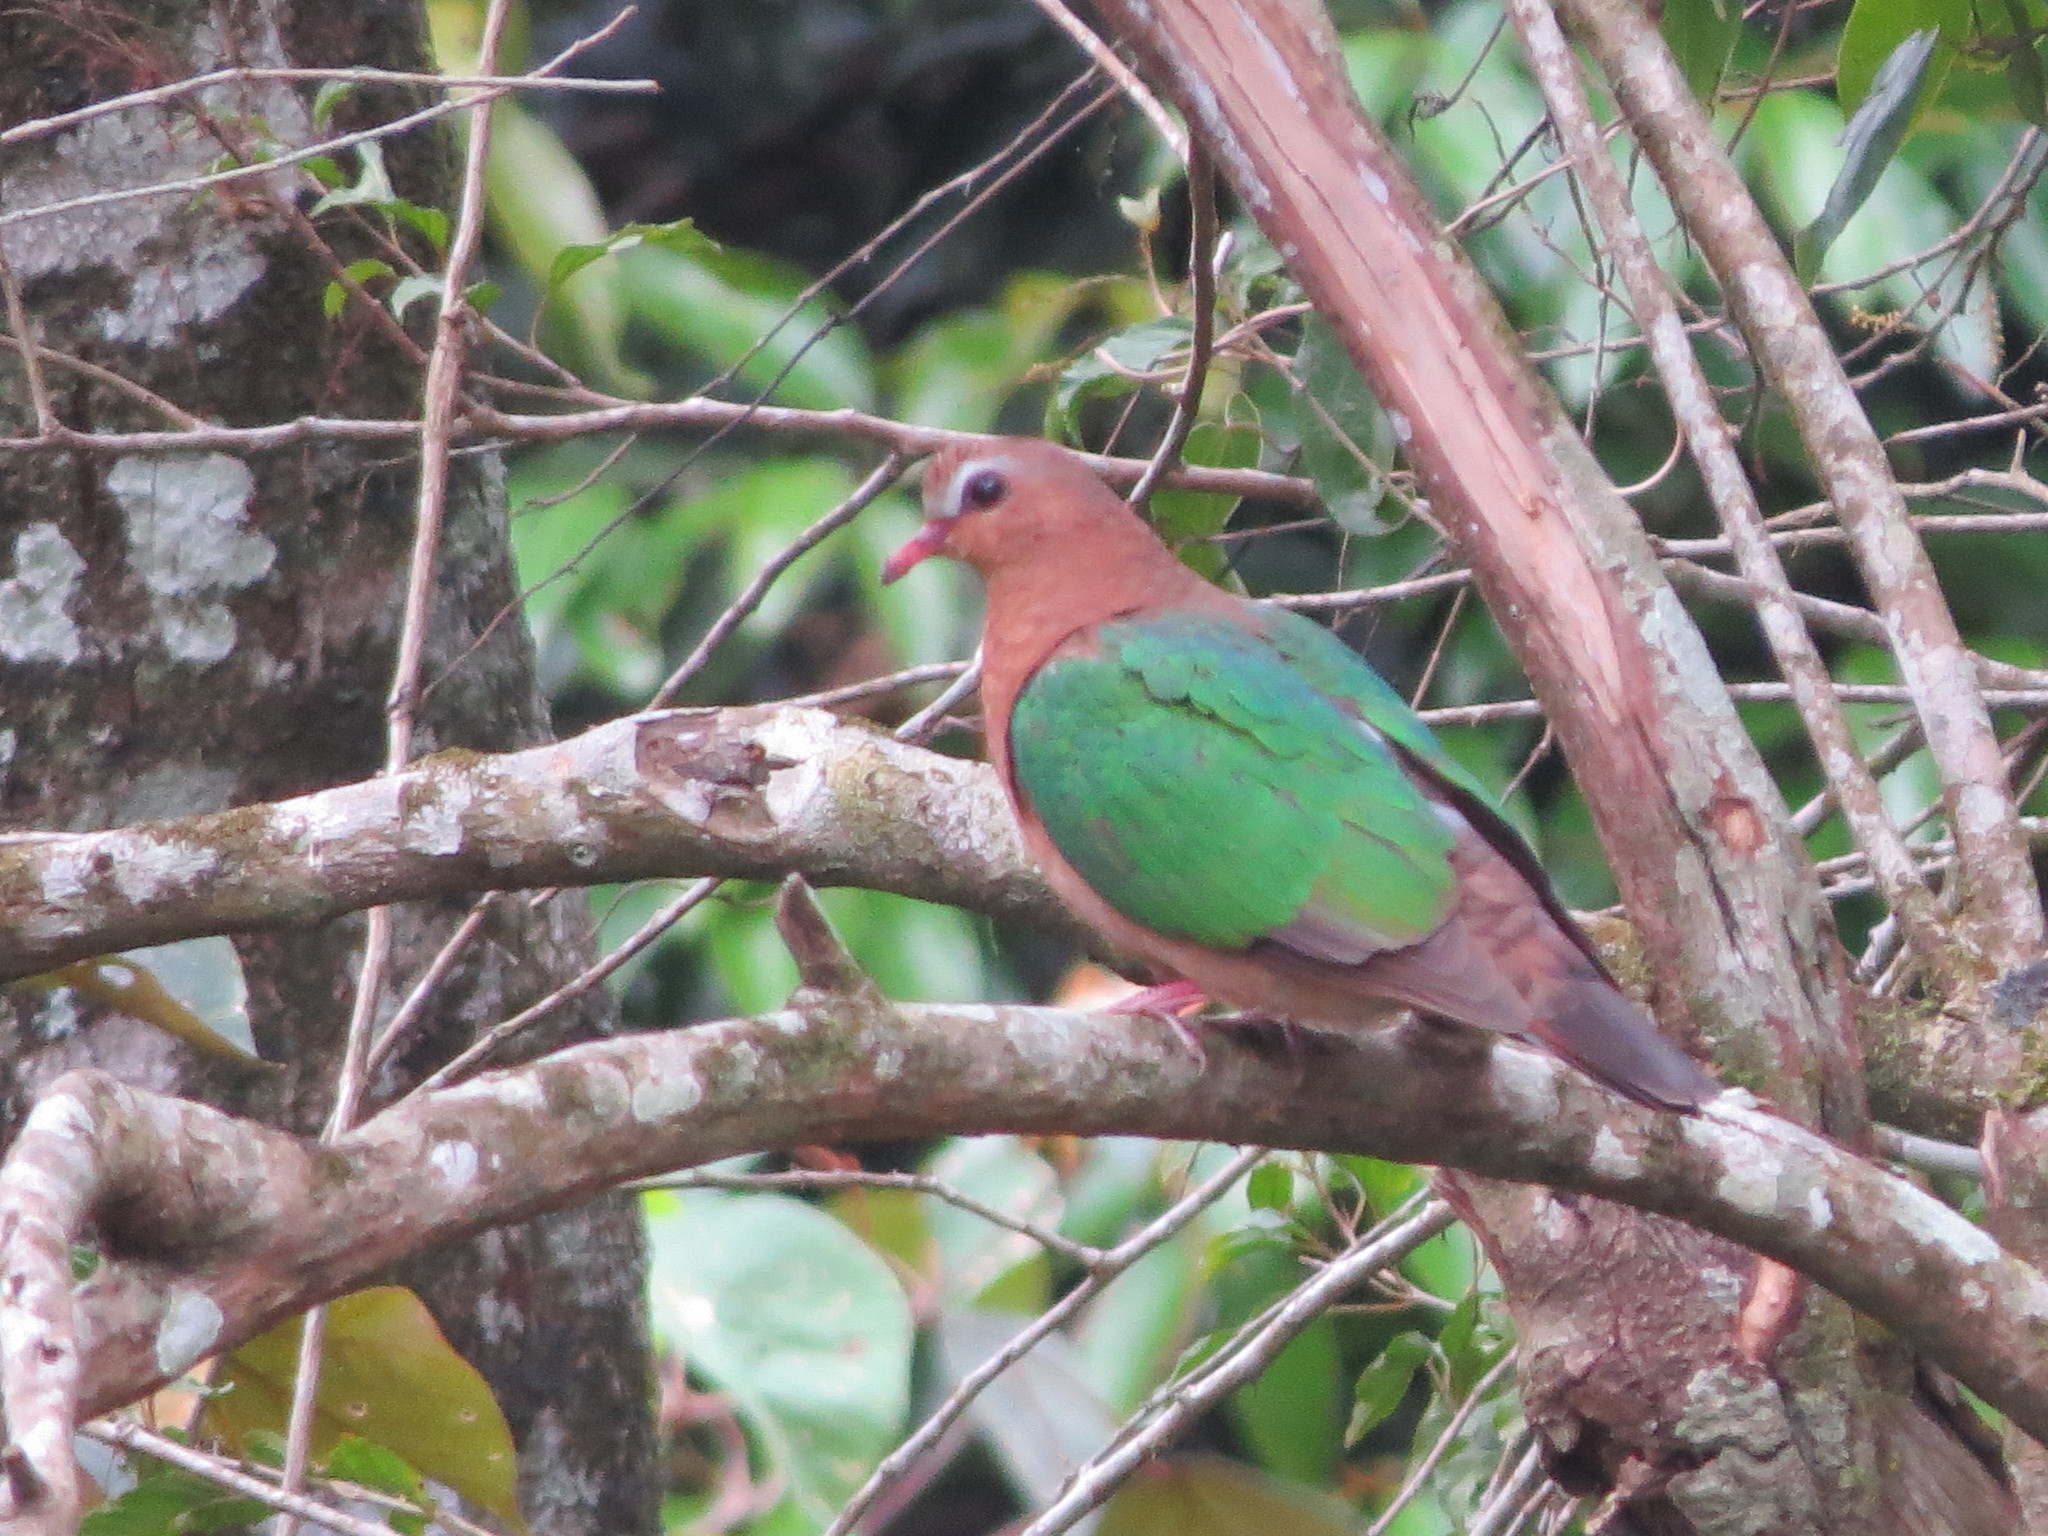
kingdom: Animalia
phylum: Chordata
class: Aves
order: Columbiformes
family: Columbidae
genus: Chalcophaps
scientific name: Chalcophaps indica
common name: Common emerald dove
